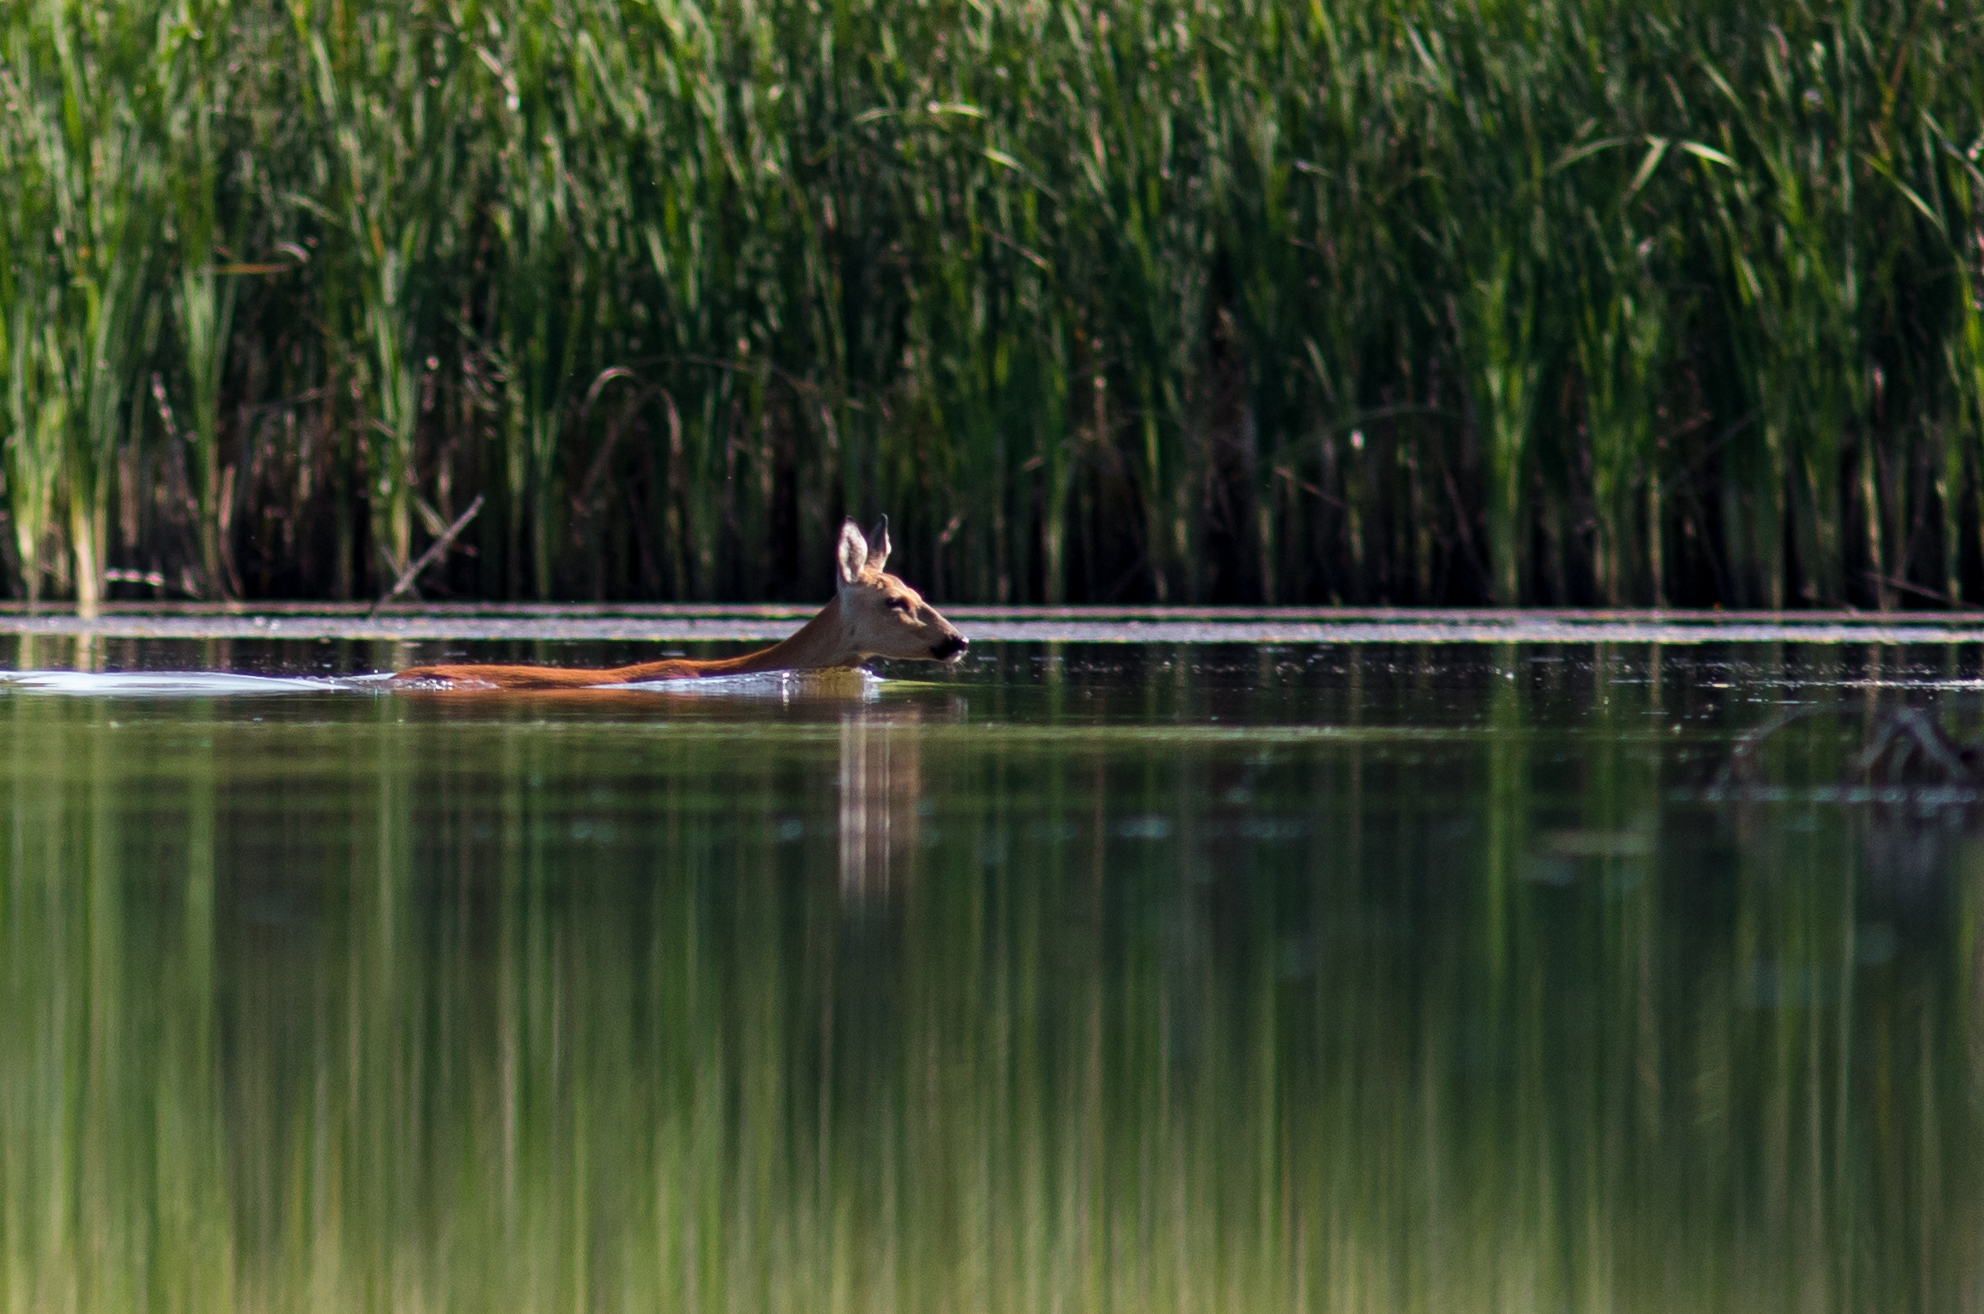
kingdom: Animalia
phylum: Chordata
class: Mammalia
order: Artiodactyla
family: Cervidae
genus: Capreolus
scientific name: Capreolus pygargus
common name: Siberian roe
